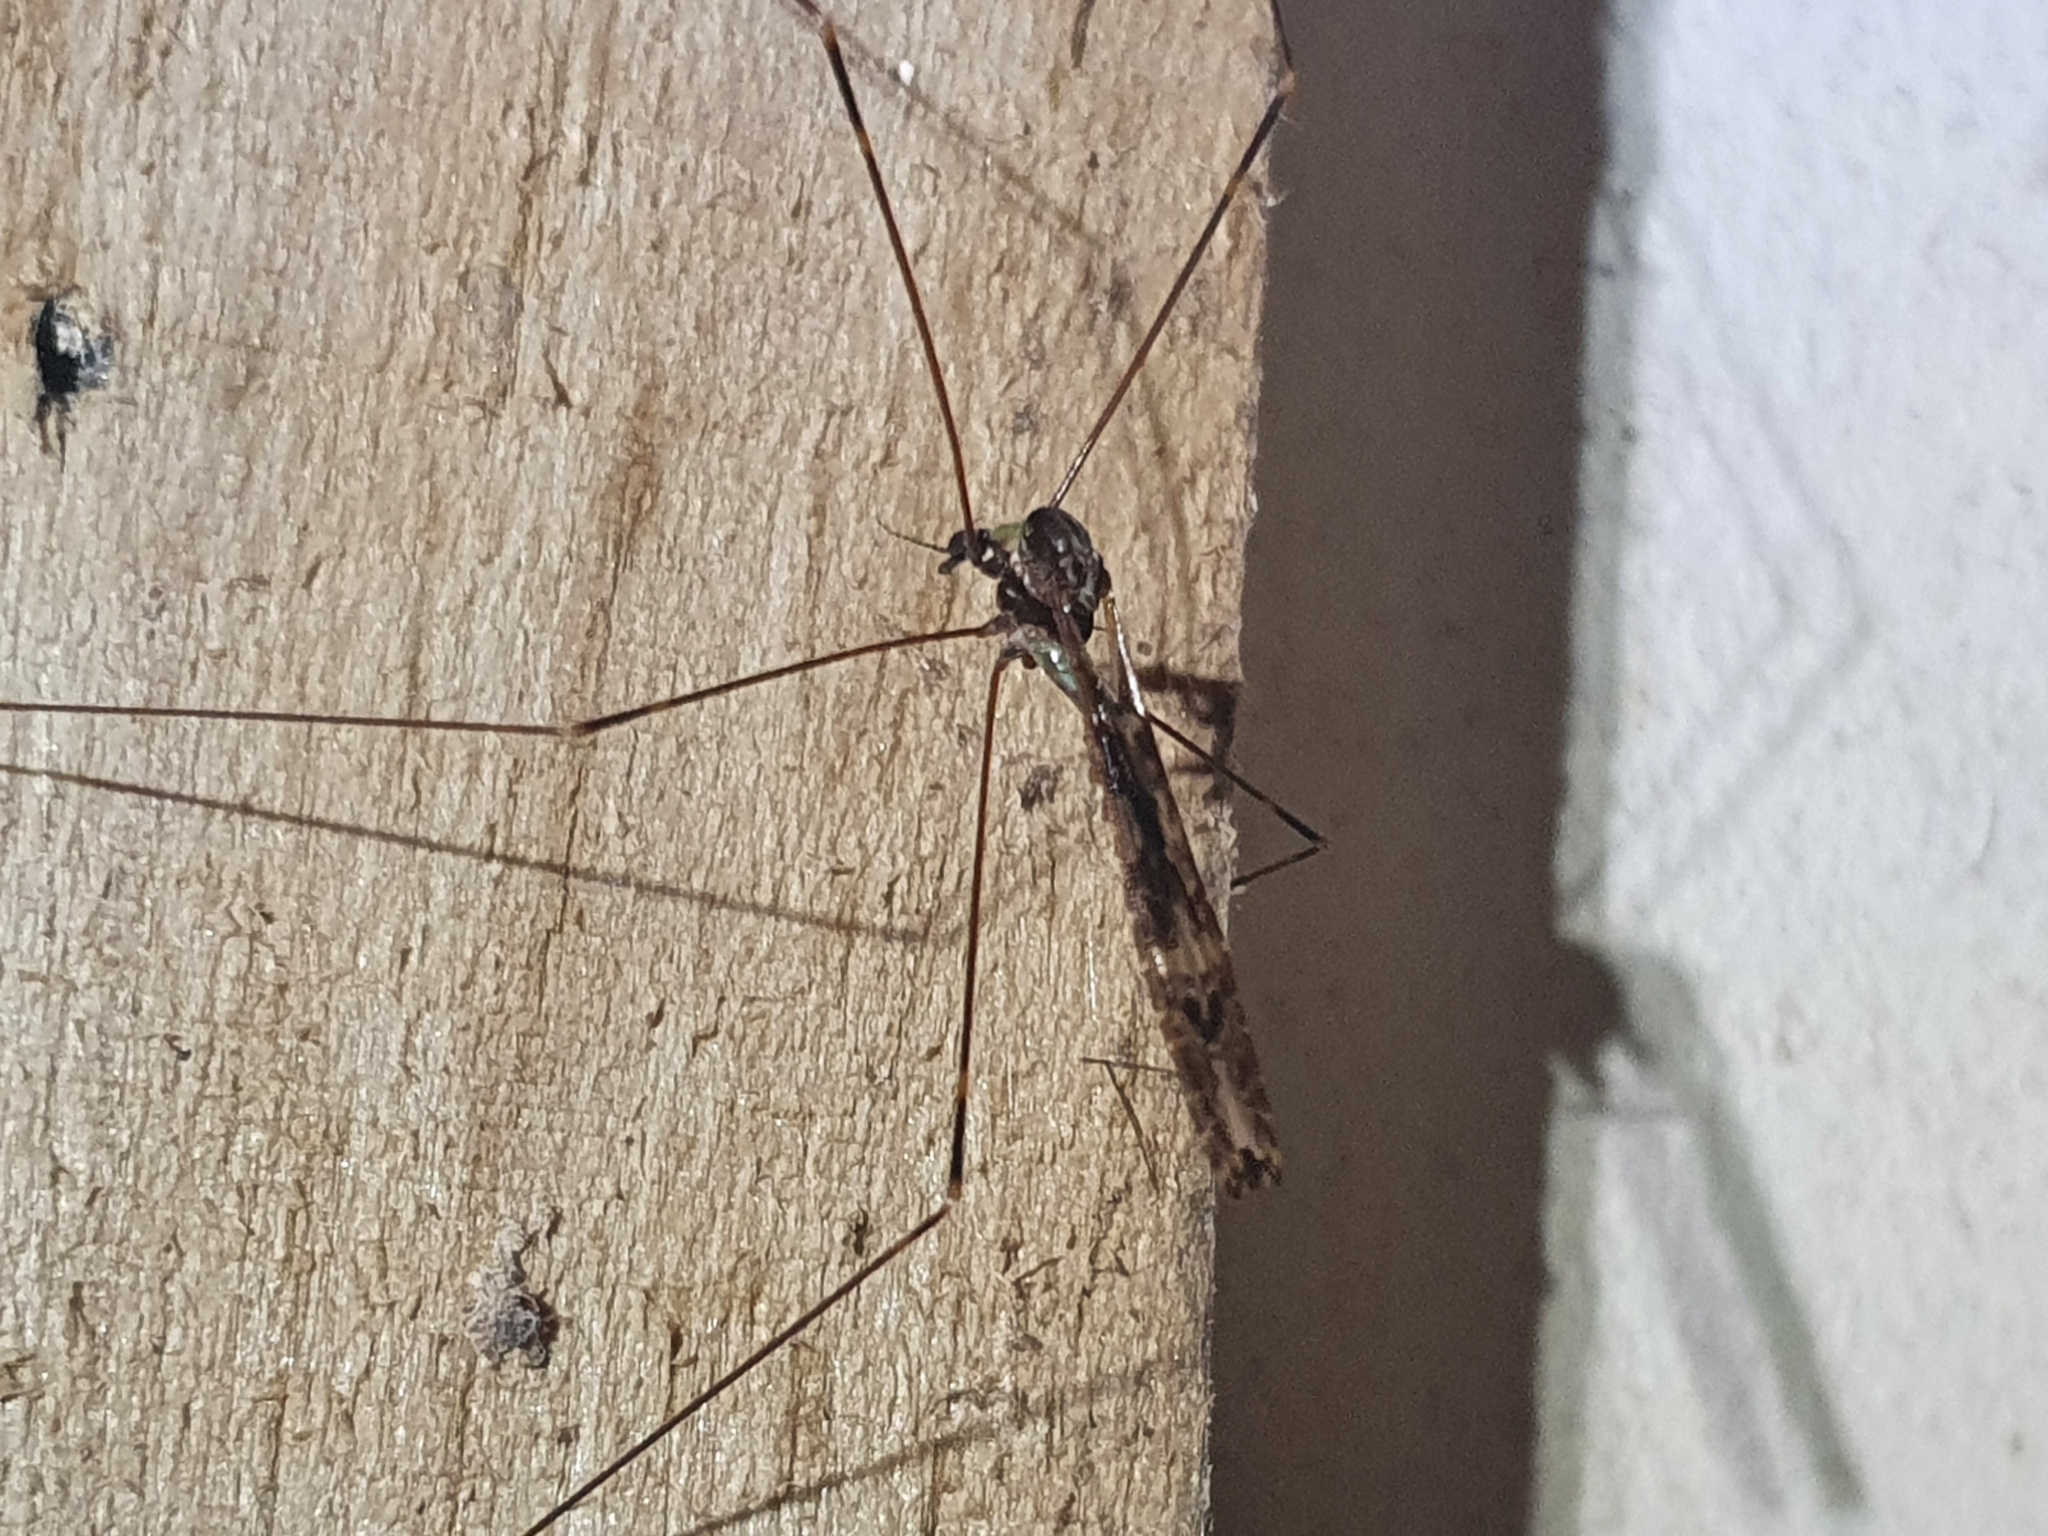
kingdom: Animalia
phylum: Arthropoda
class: Insecta
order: Diptera
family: Limoniidae
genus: Discobola
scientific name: Discobola dohrni
